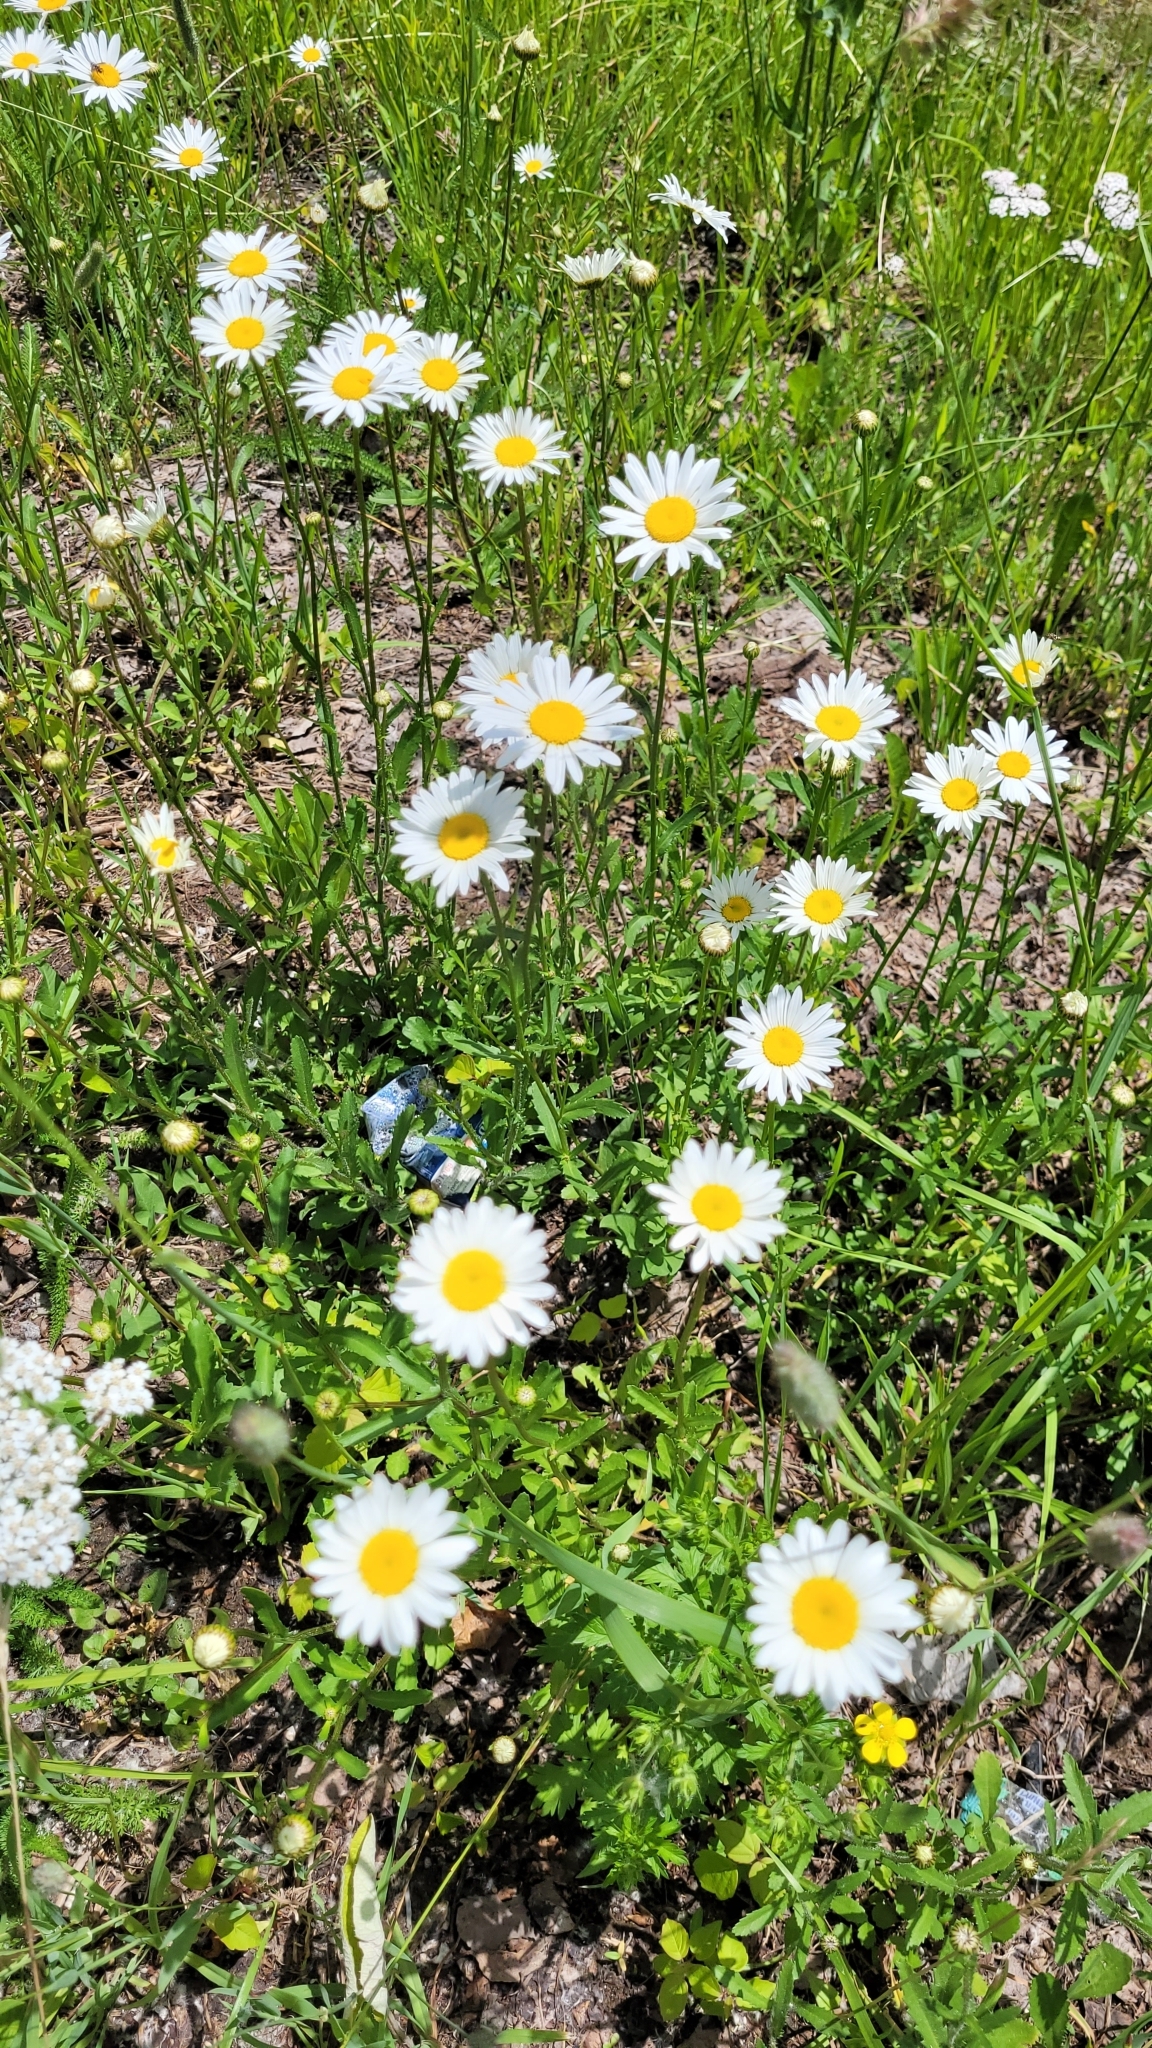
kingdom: Plantae
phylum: Tracheophyta
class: Magnoliopsida
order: Asterales
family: Asteraceae
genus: Leucanthemum
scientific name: Leucanthemum vulgare
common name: Oxeye daisy
